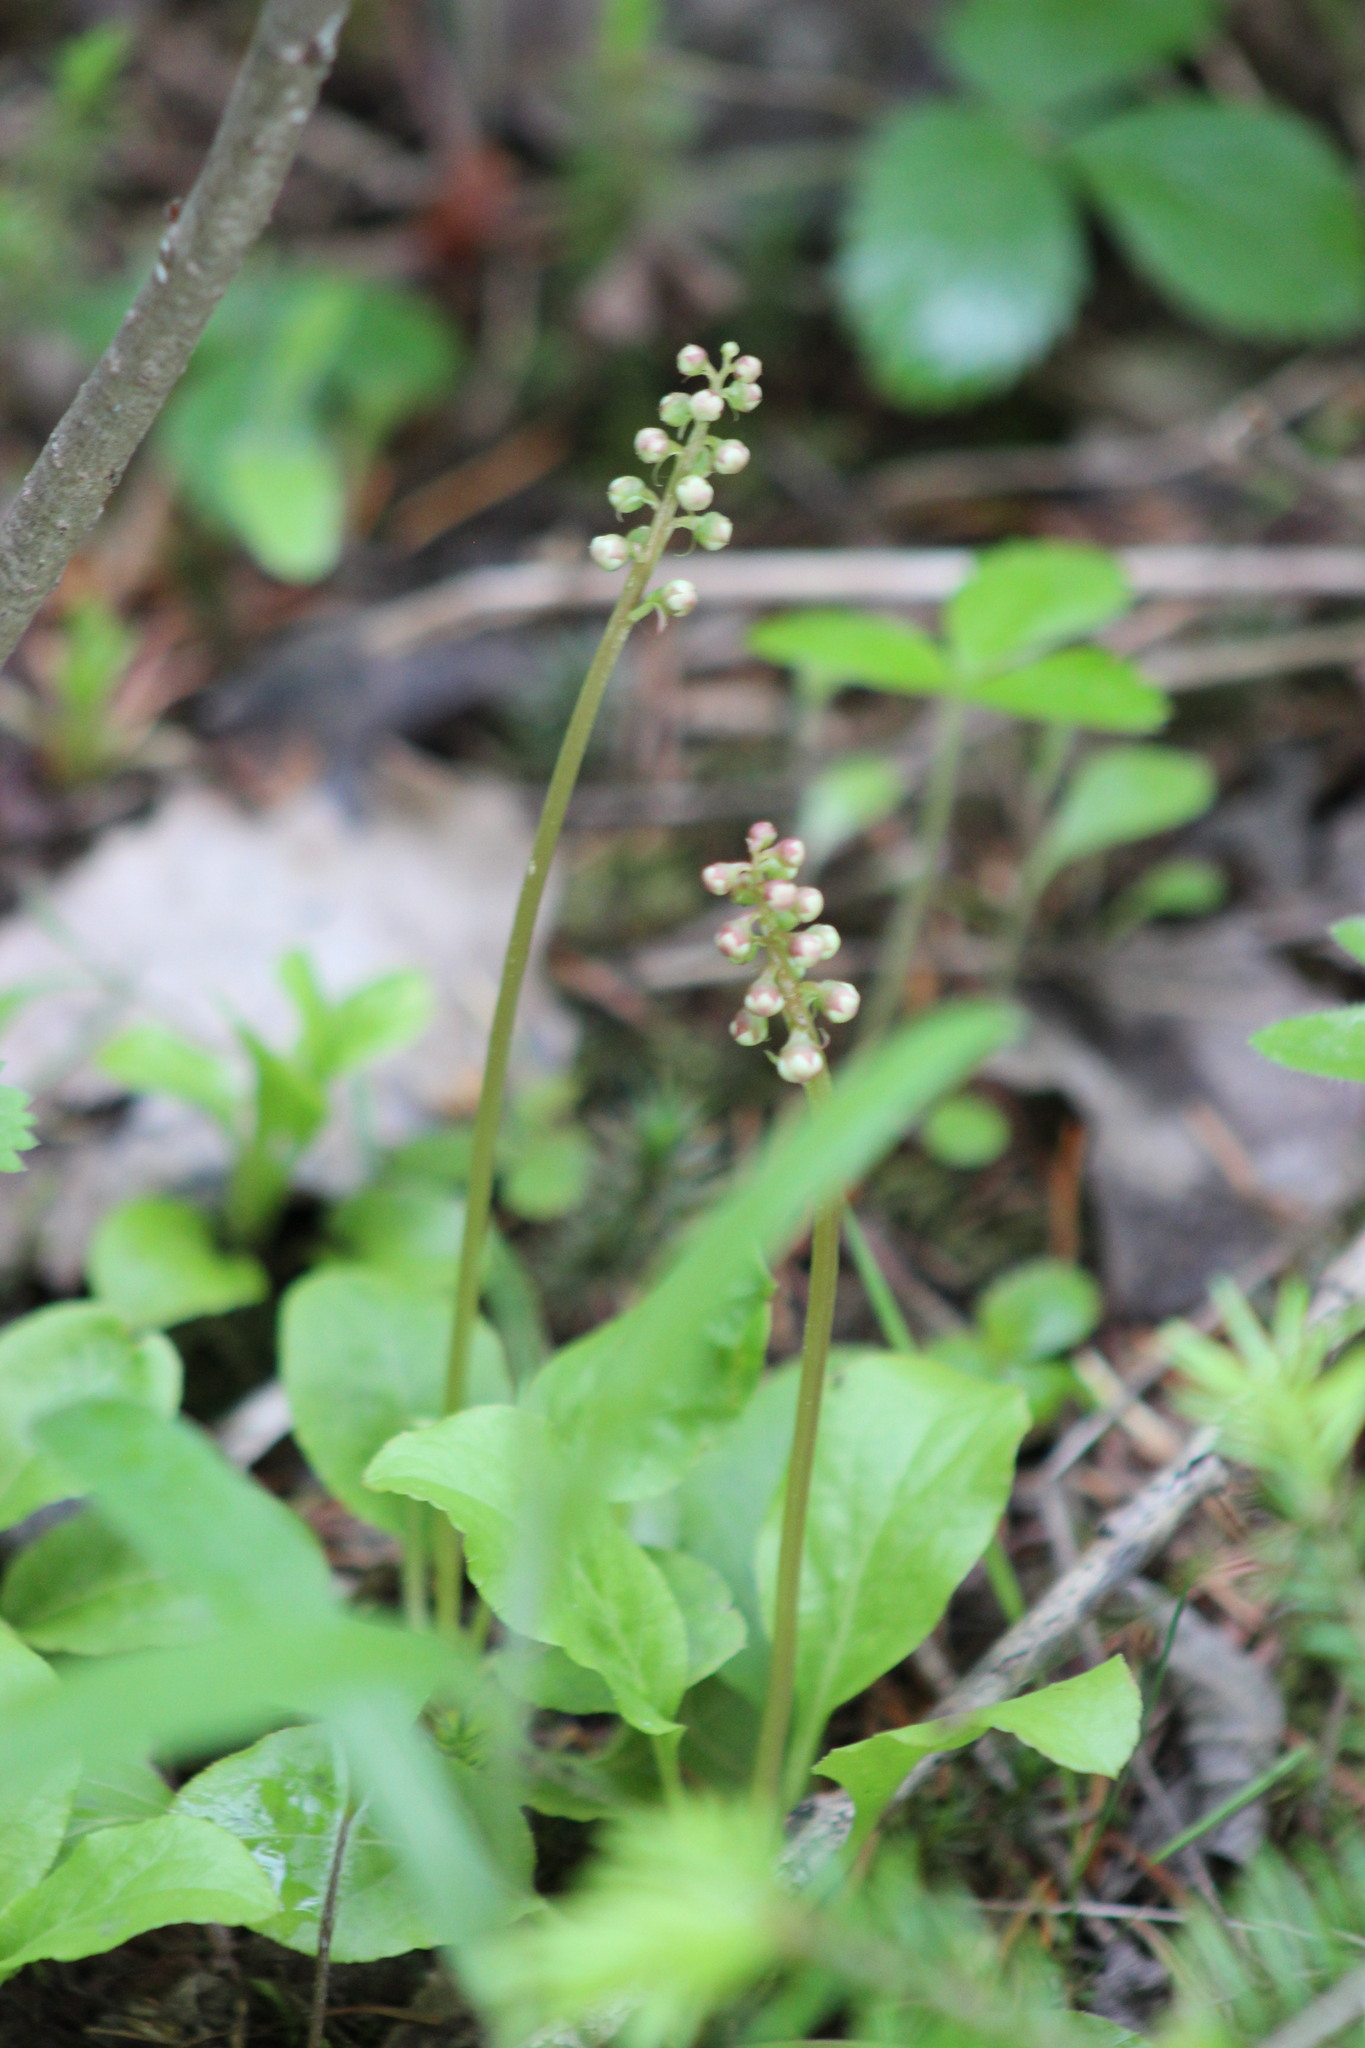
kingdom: Plantae
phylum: Tracheophyta
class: Magnoliopsida
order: Ericales
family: Ericaceae
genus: Pyrola
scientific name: Pyrola minor
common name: Common wintergreen
